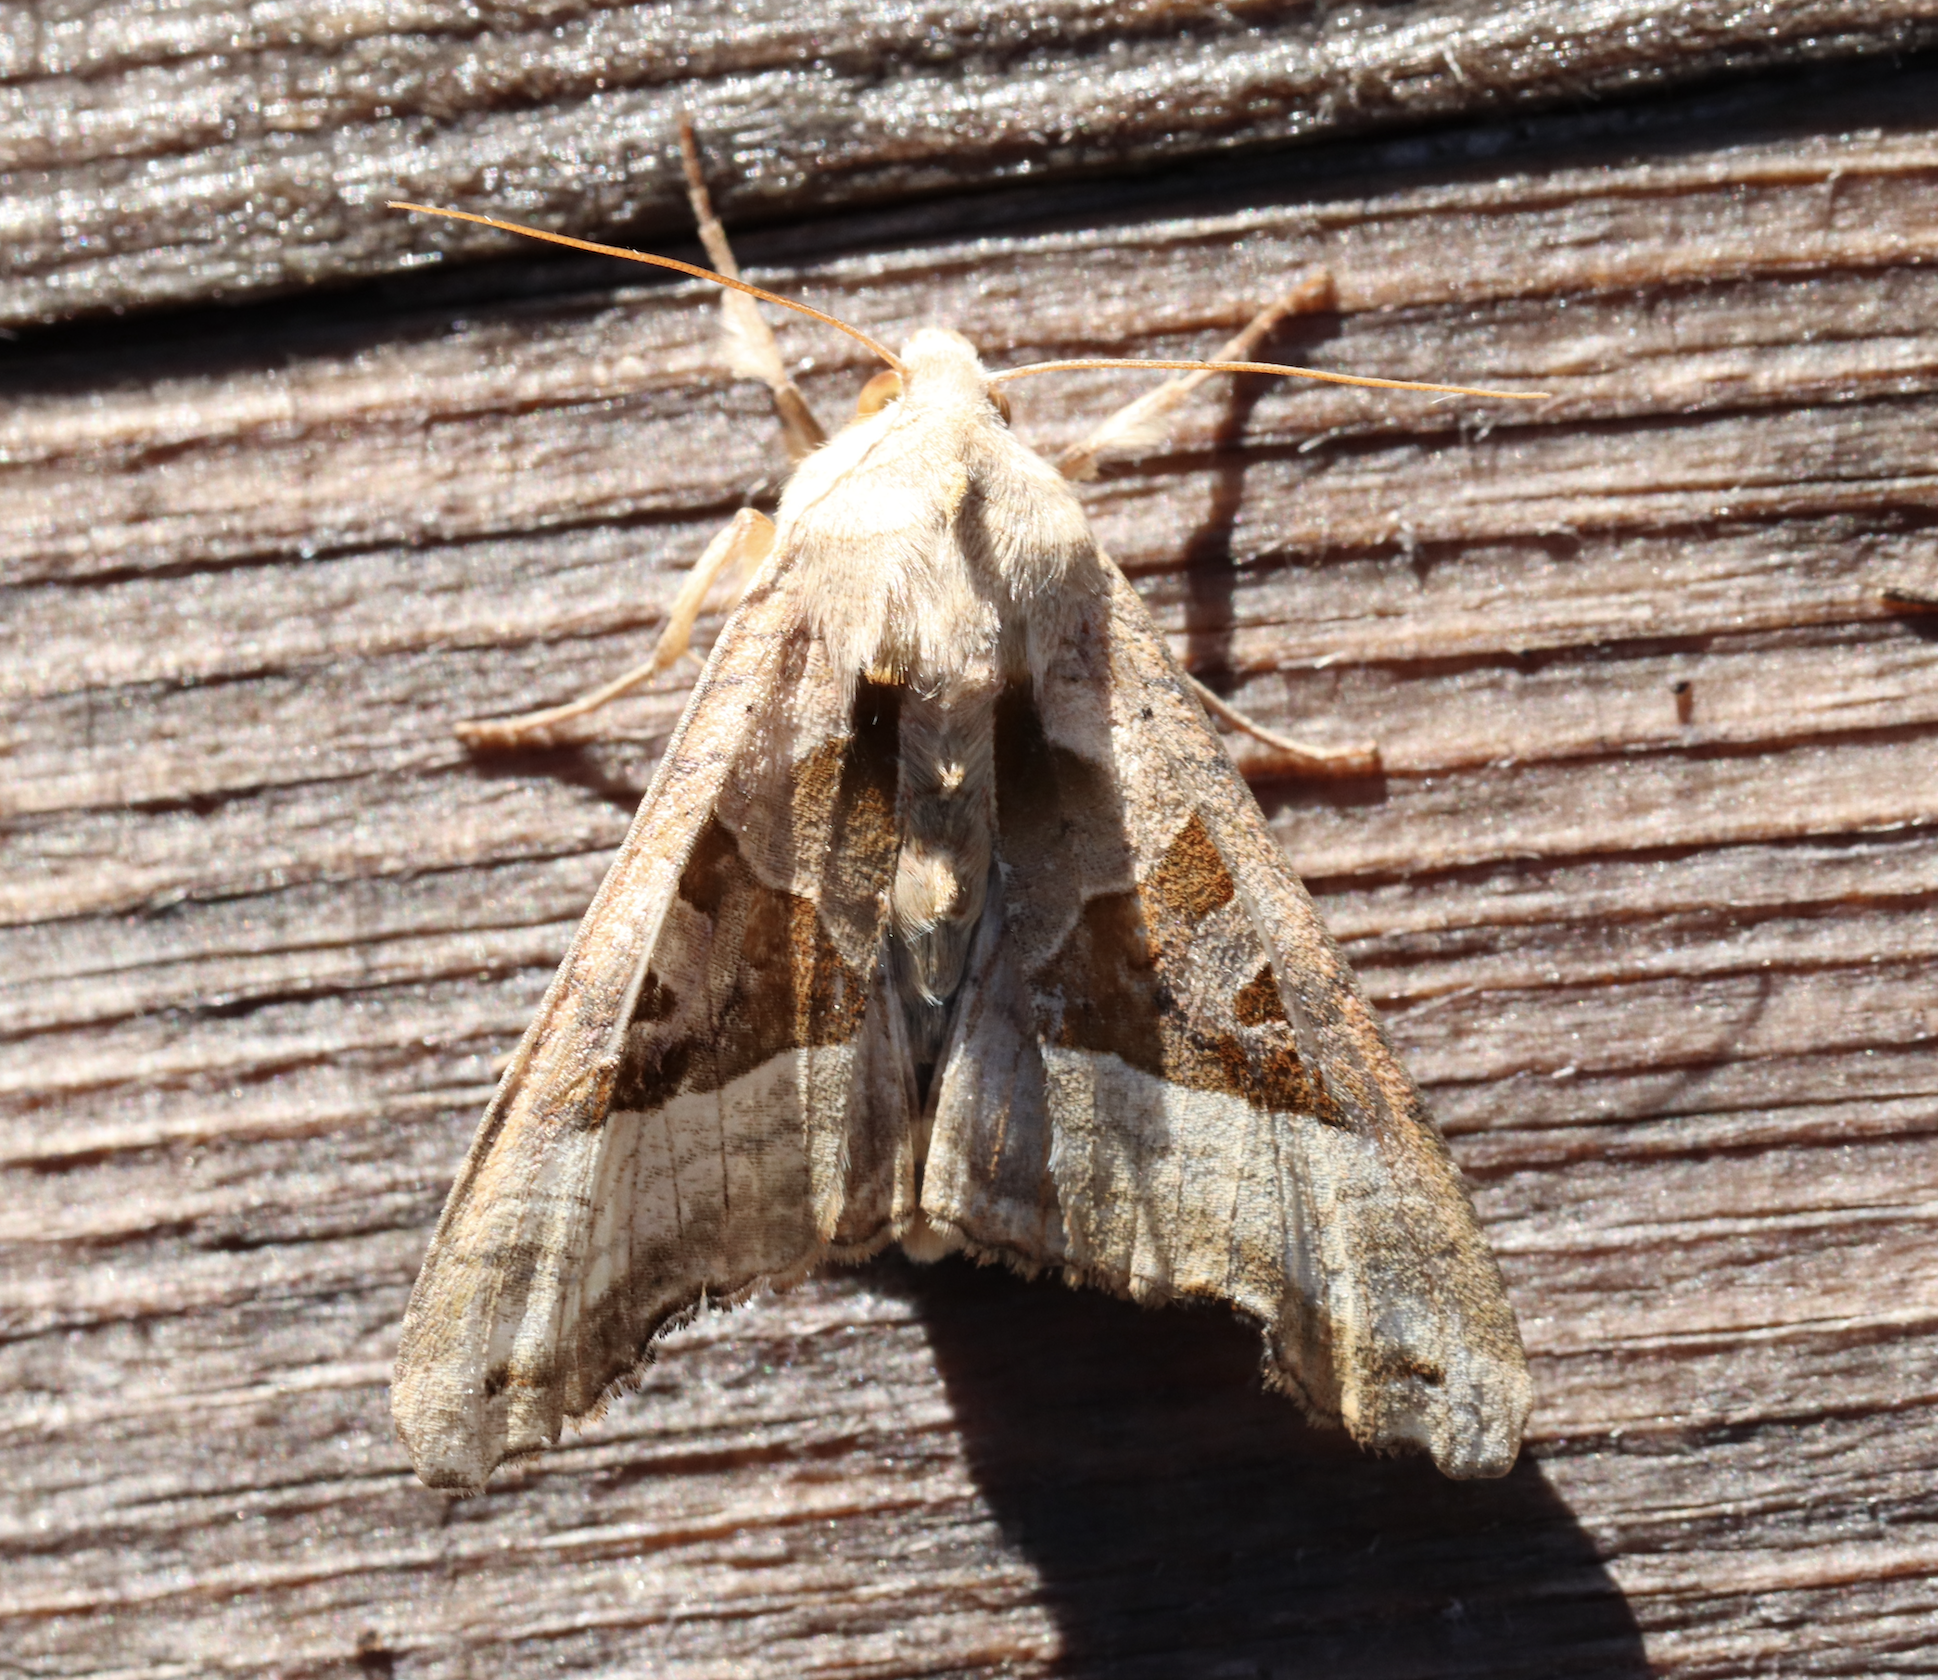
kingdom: Animalia
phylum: Arthropoda
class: Insecta
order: Lepidoptera
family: Noctuidae
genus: Phlogophora
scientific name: Phlogophora meticulosa
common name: Angle shades
